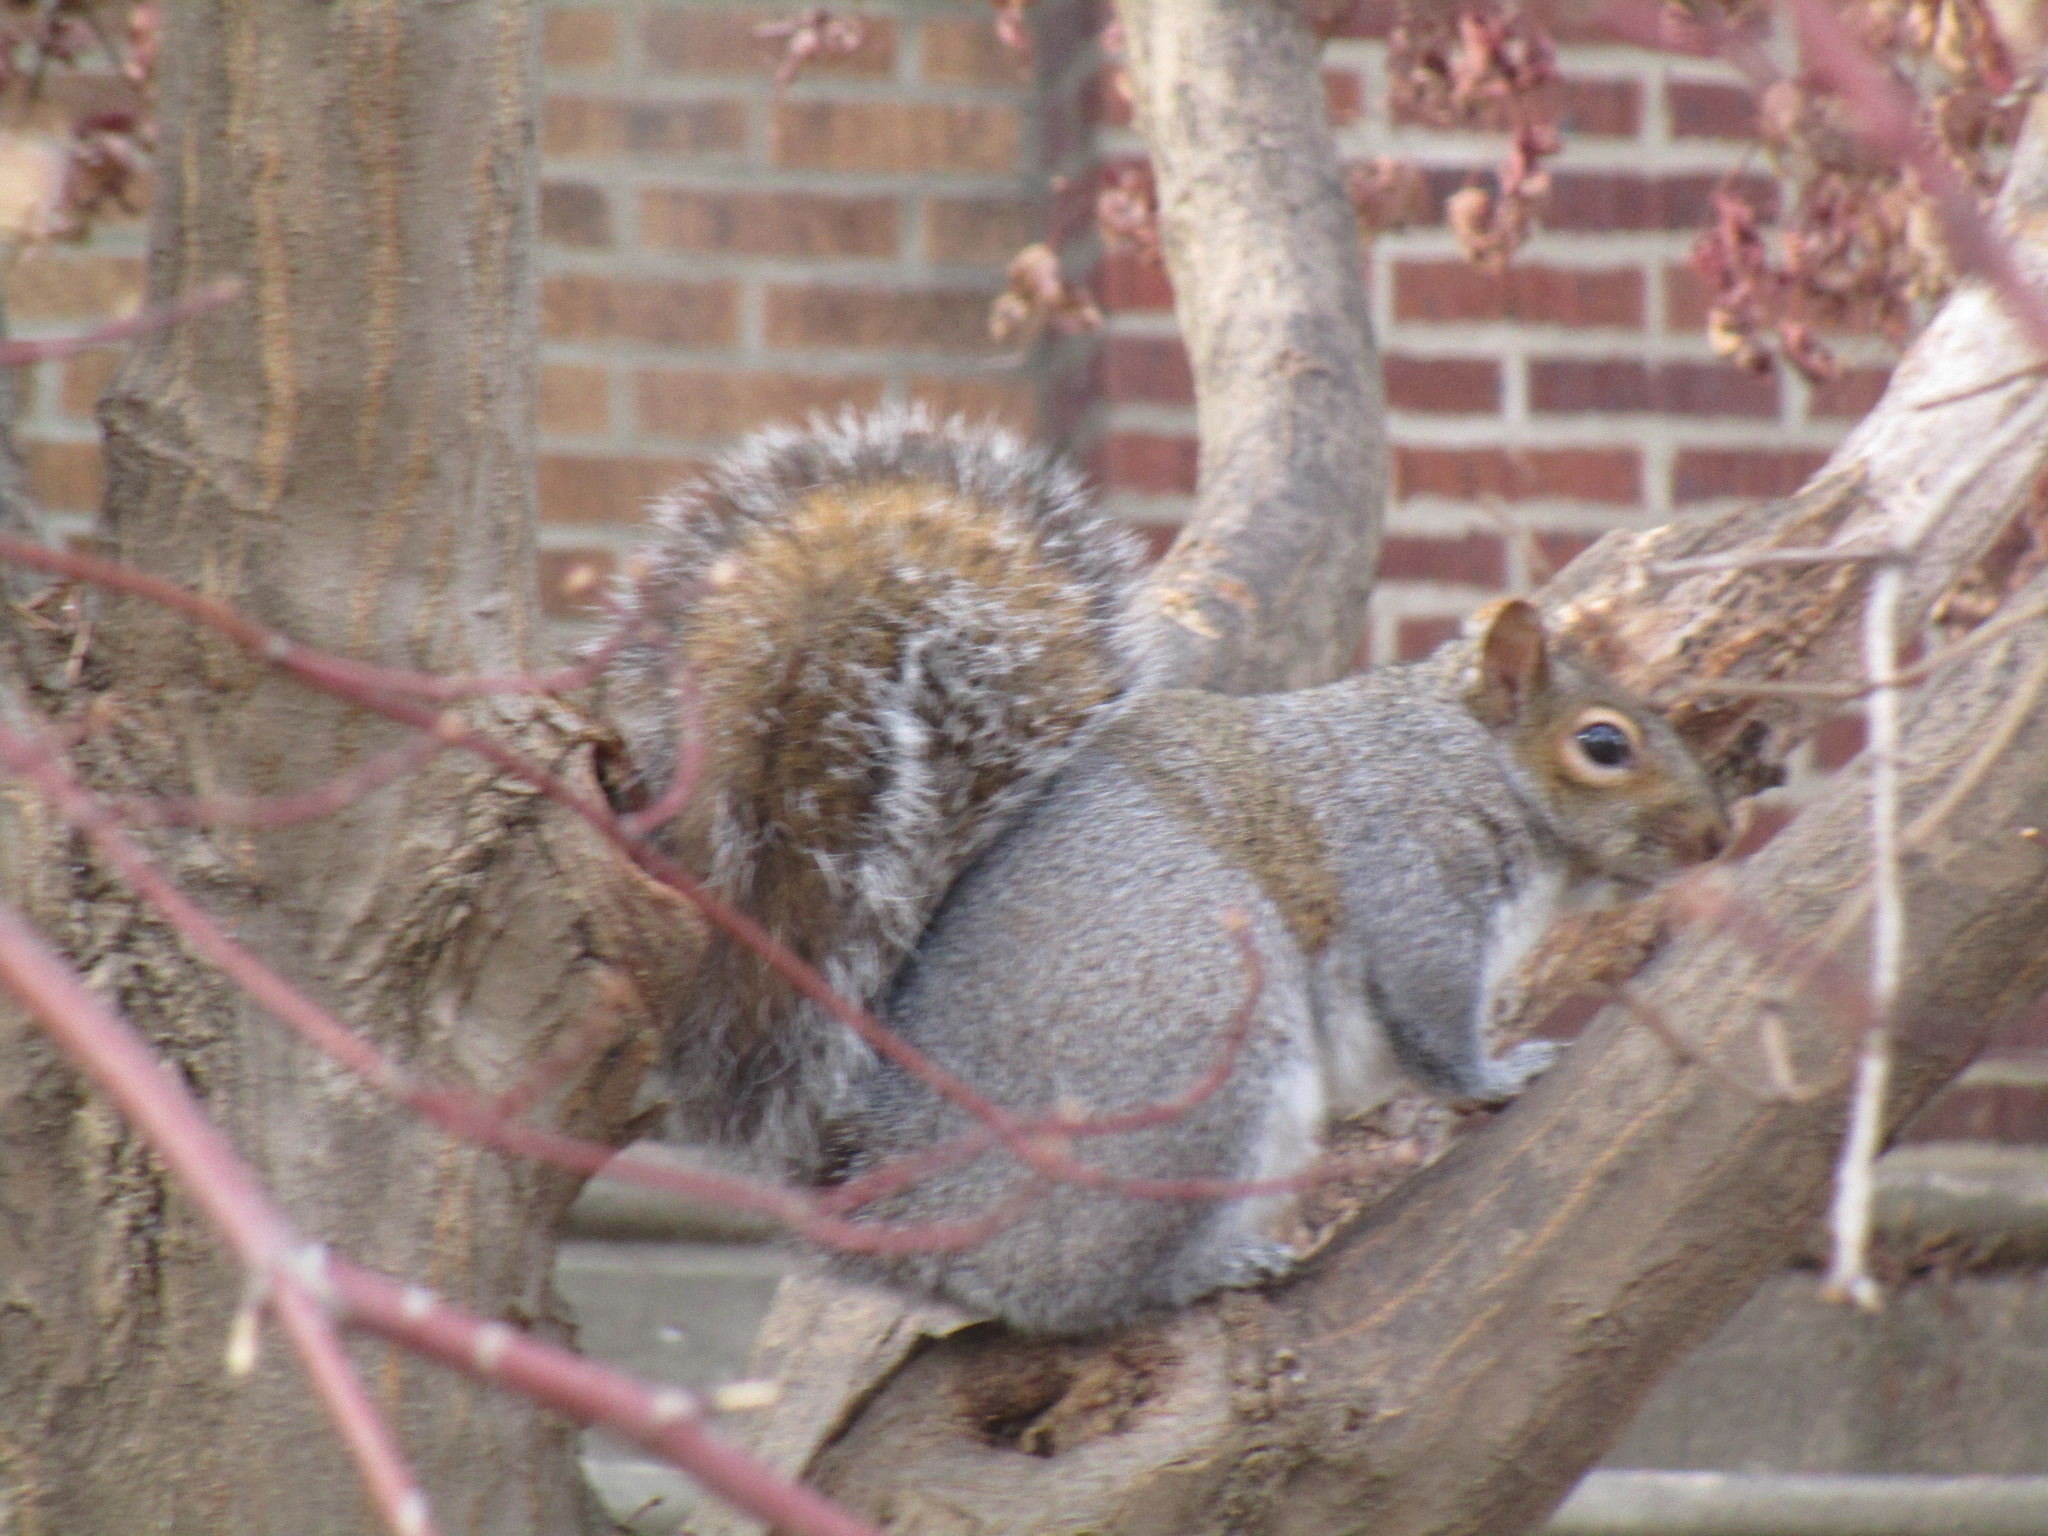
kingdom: Animalia
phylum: Chordata
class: Mammalia
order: Rodentia
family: Sciuridae
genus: Sciurus
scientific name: Sciurus carolinensis
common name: Eastern gray squirrel
